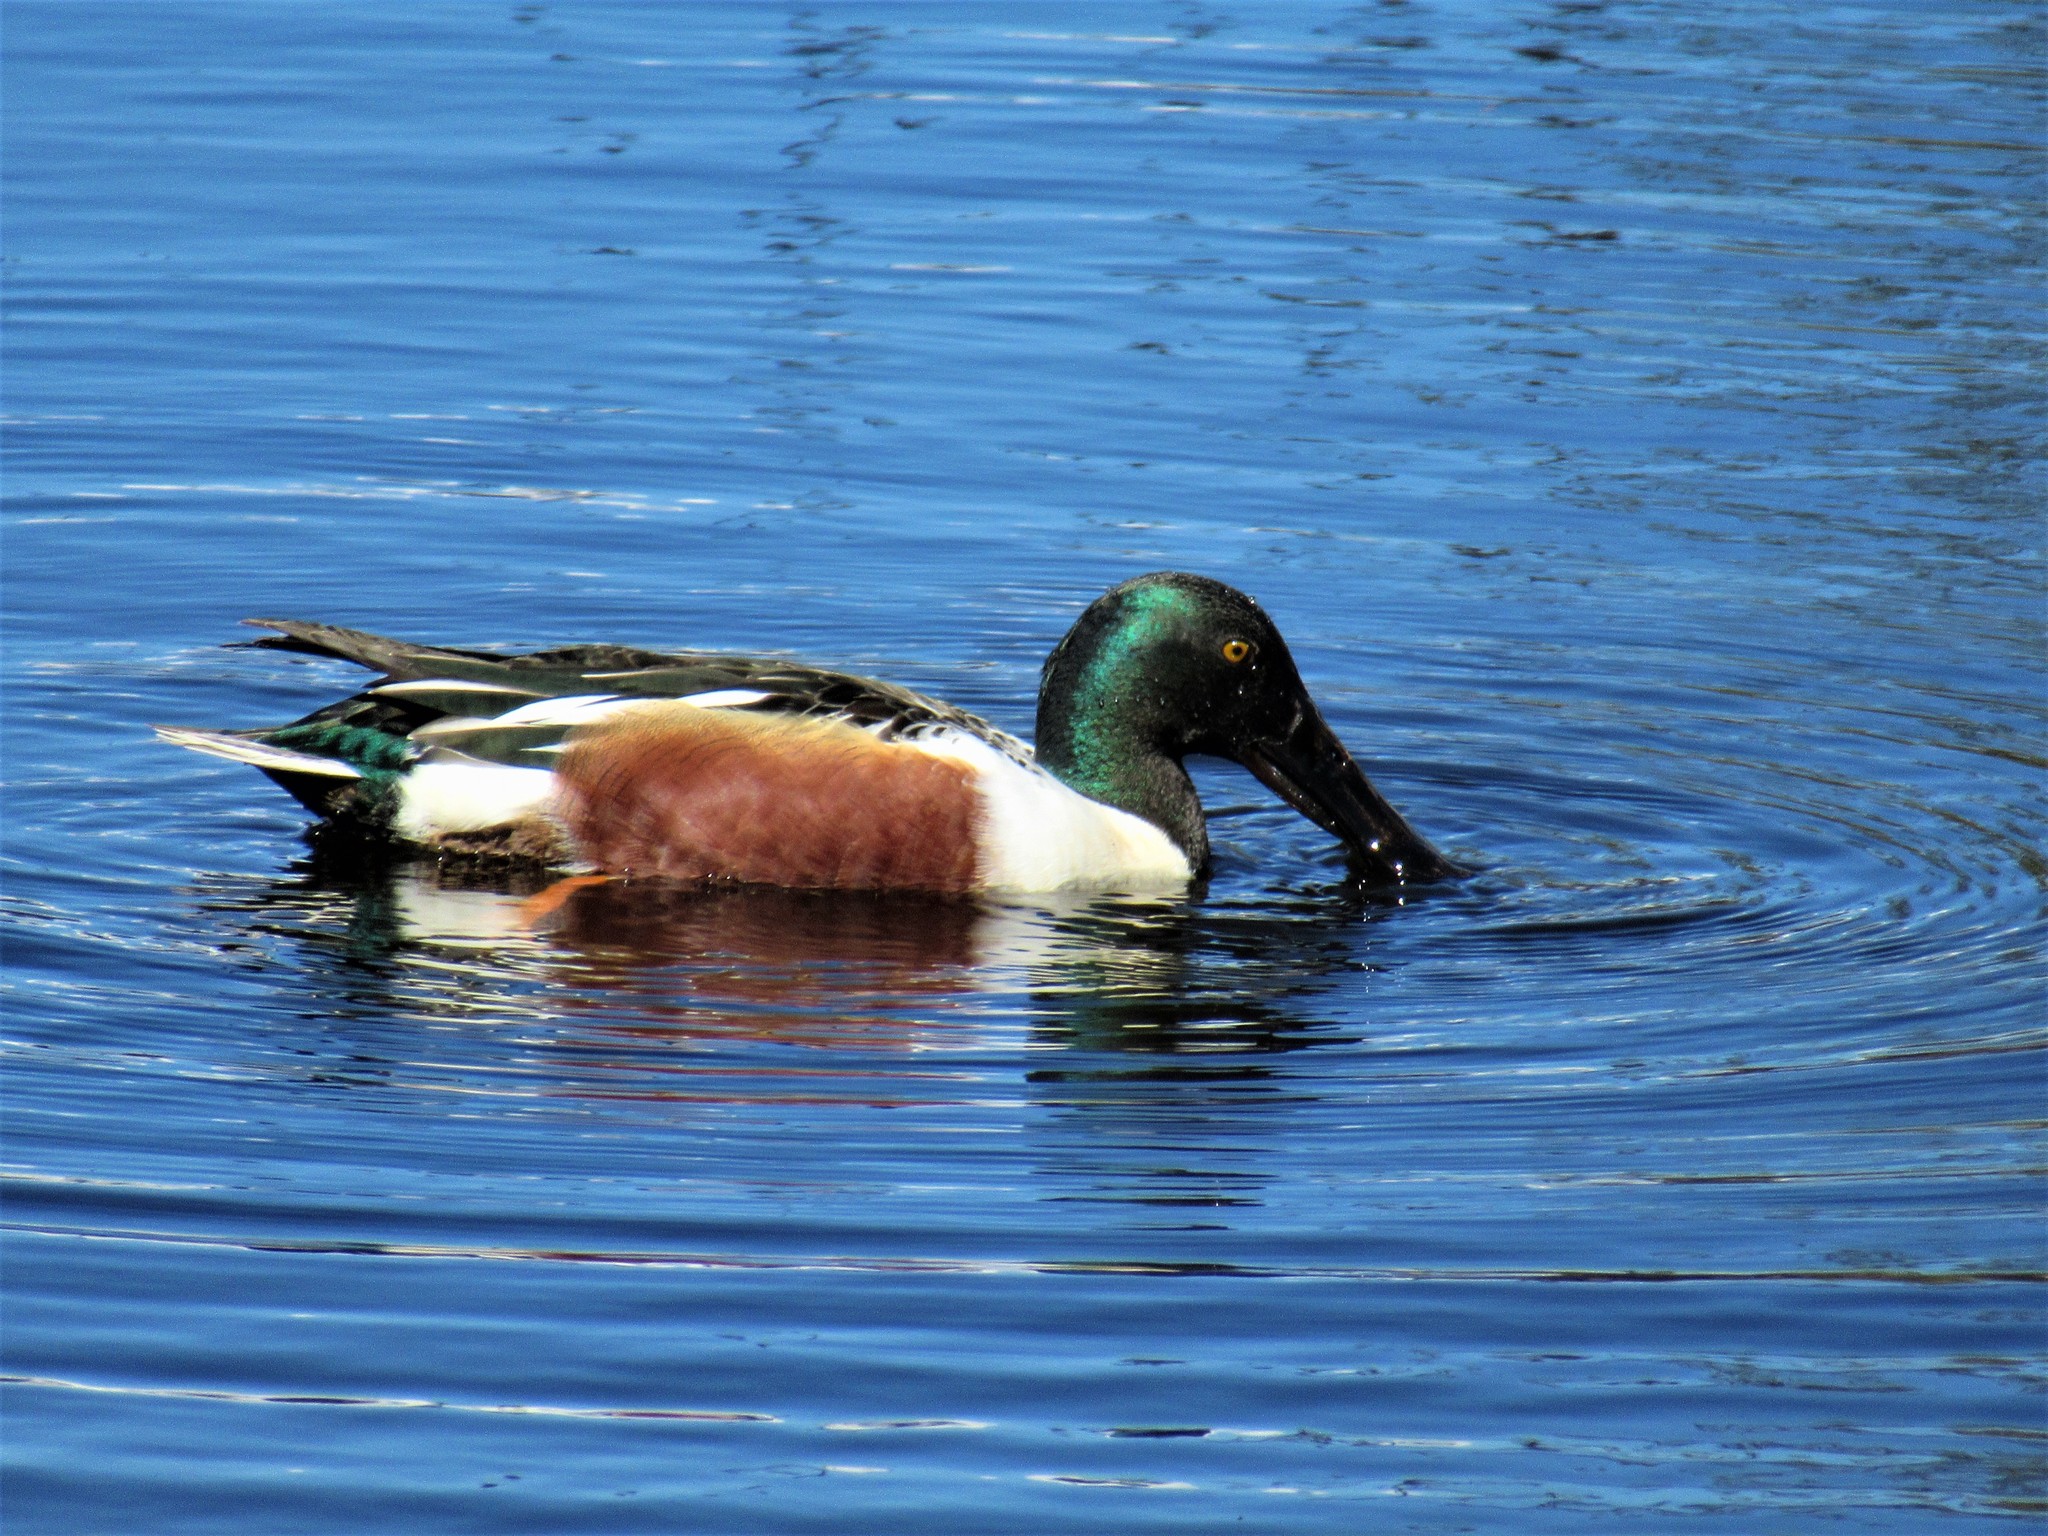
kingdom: Animalia
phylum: Chordata
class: Aves
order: Anseriformes
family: Anatidae
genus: Spatula
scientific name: Spatula clypeata
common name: Northern shoveler
